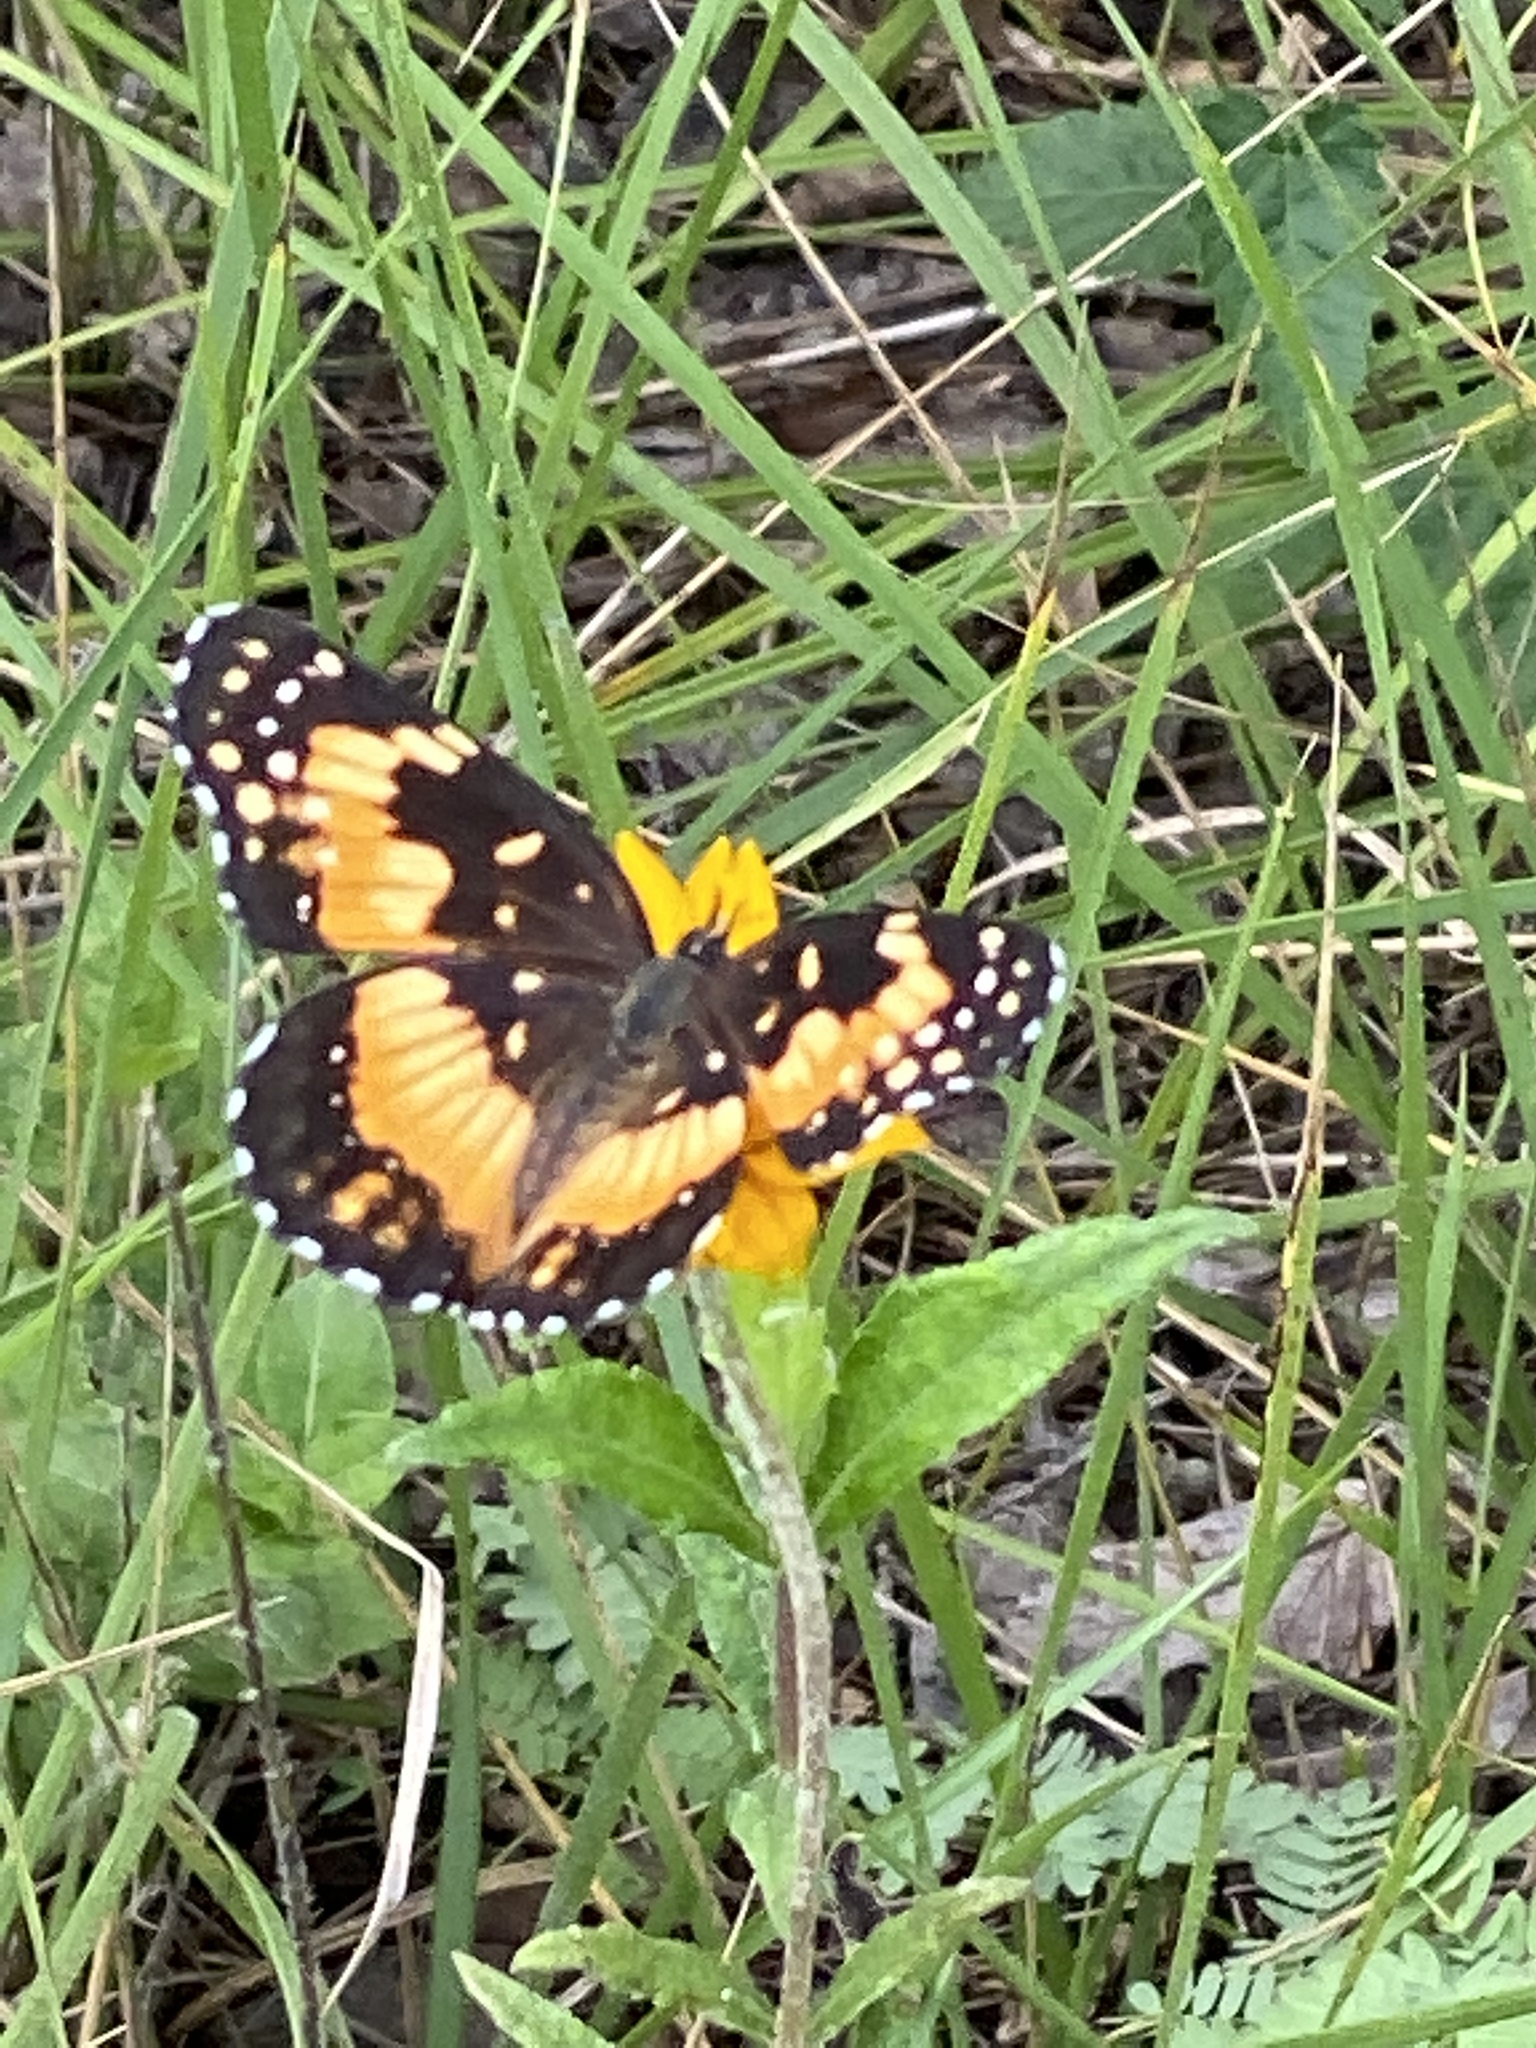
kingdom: Animalia
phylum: Arthropoda
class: Insecta
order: Lepidoptera
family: Nymphalidae
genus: Chlosyne
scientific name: Chlosyne lacinia
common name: Bordered patch
